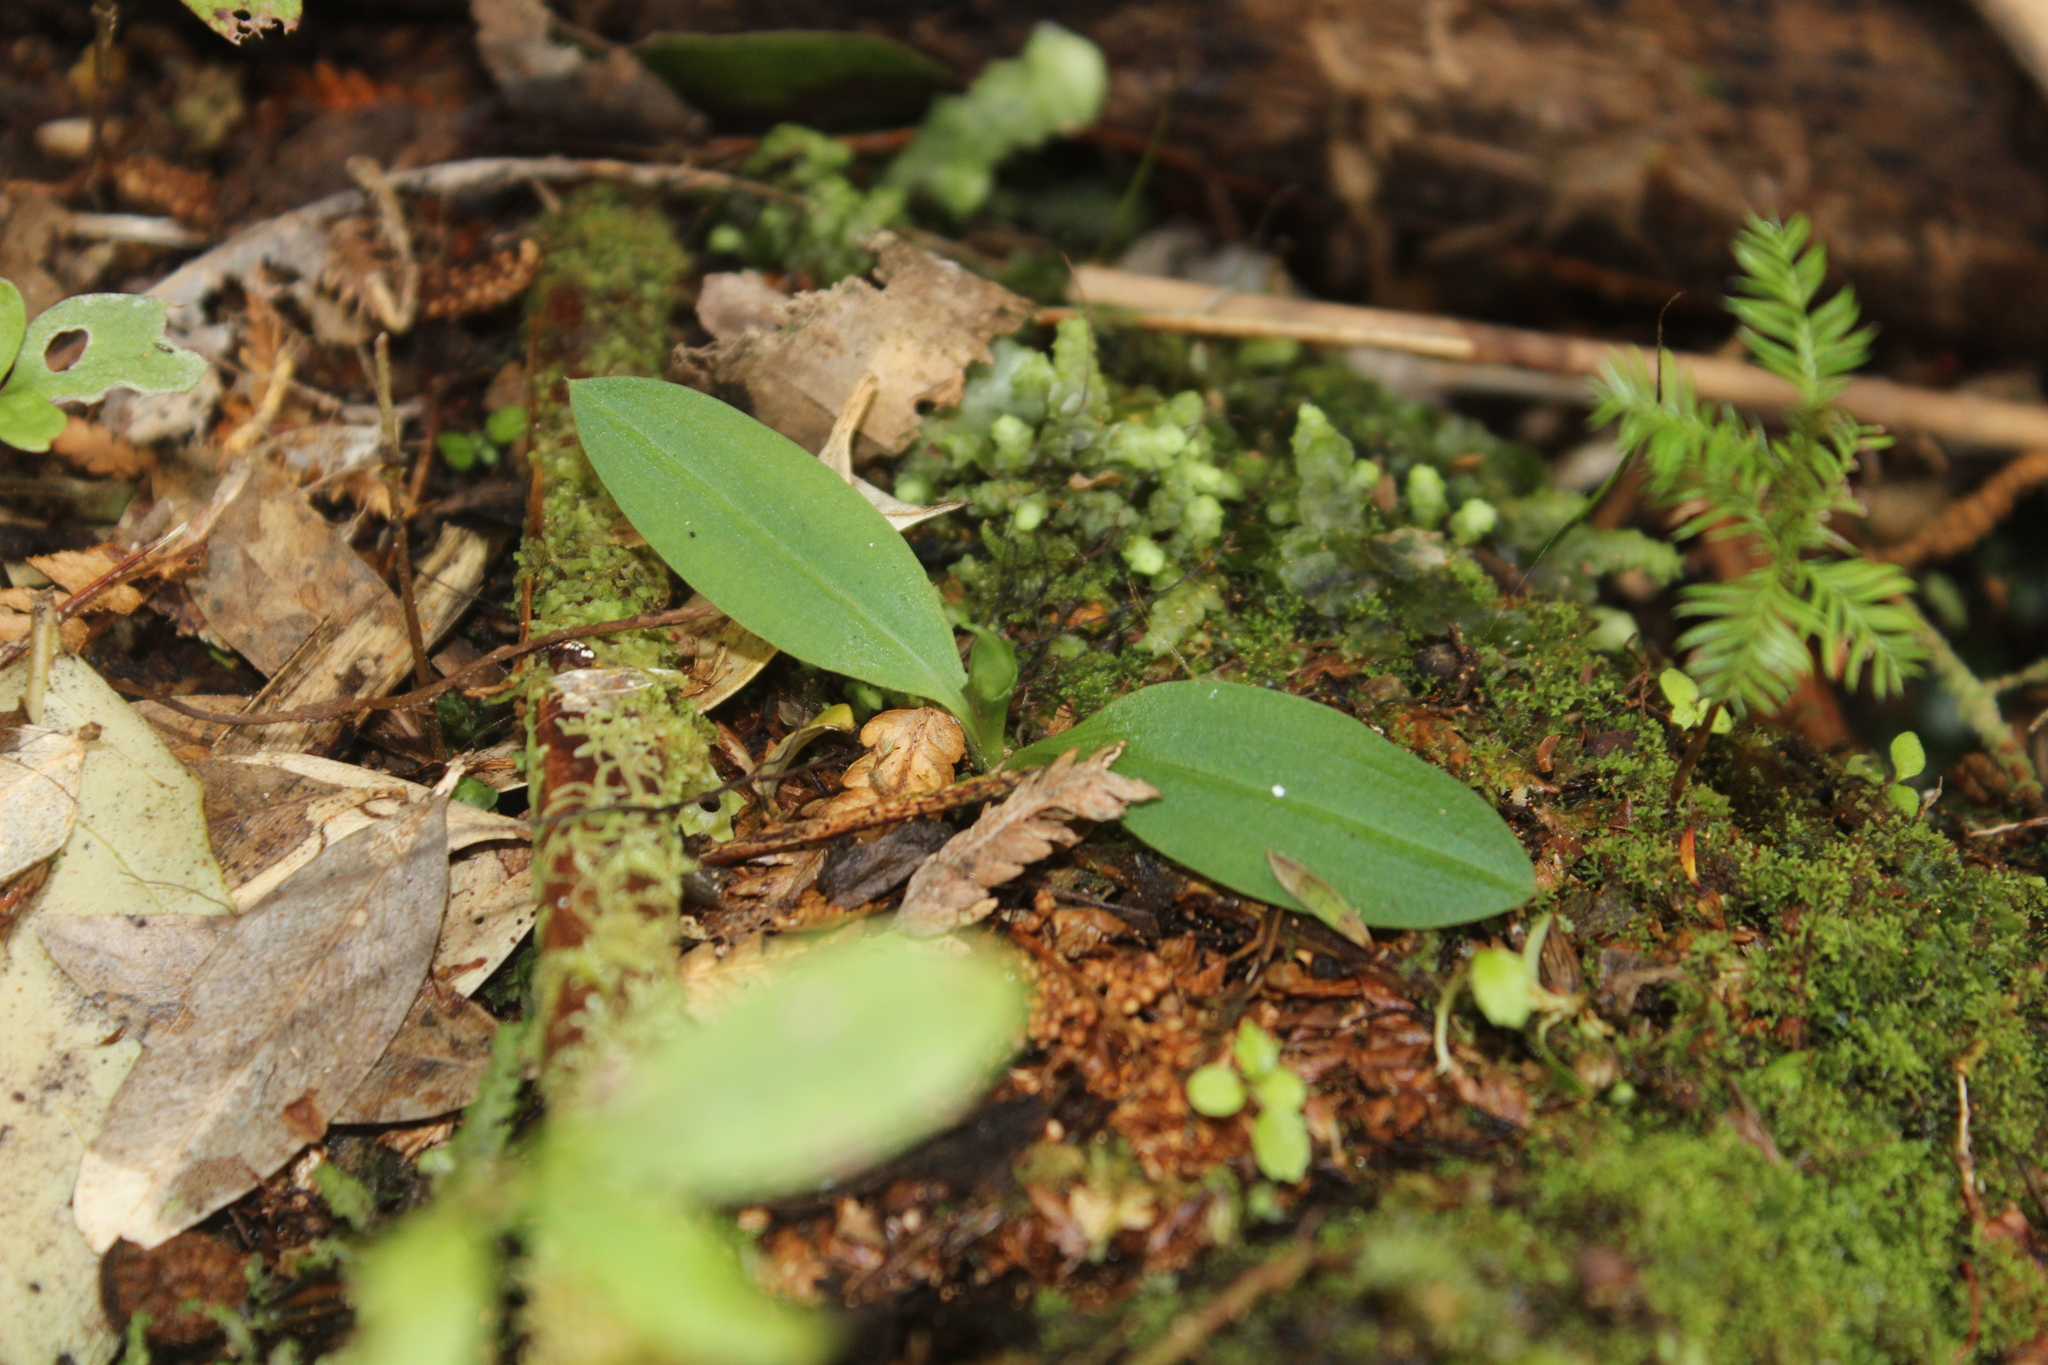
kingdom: Plantae
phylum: Tracheophyta
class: Liliopsida
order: Asparagales
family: Orchidaceae
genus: Chiloglottis
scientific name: Chiloglottis cornuta
